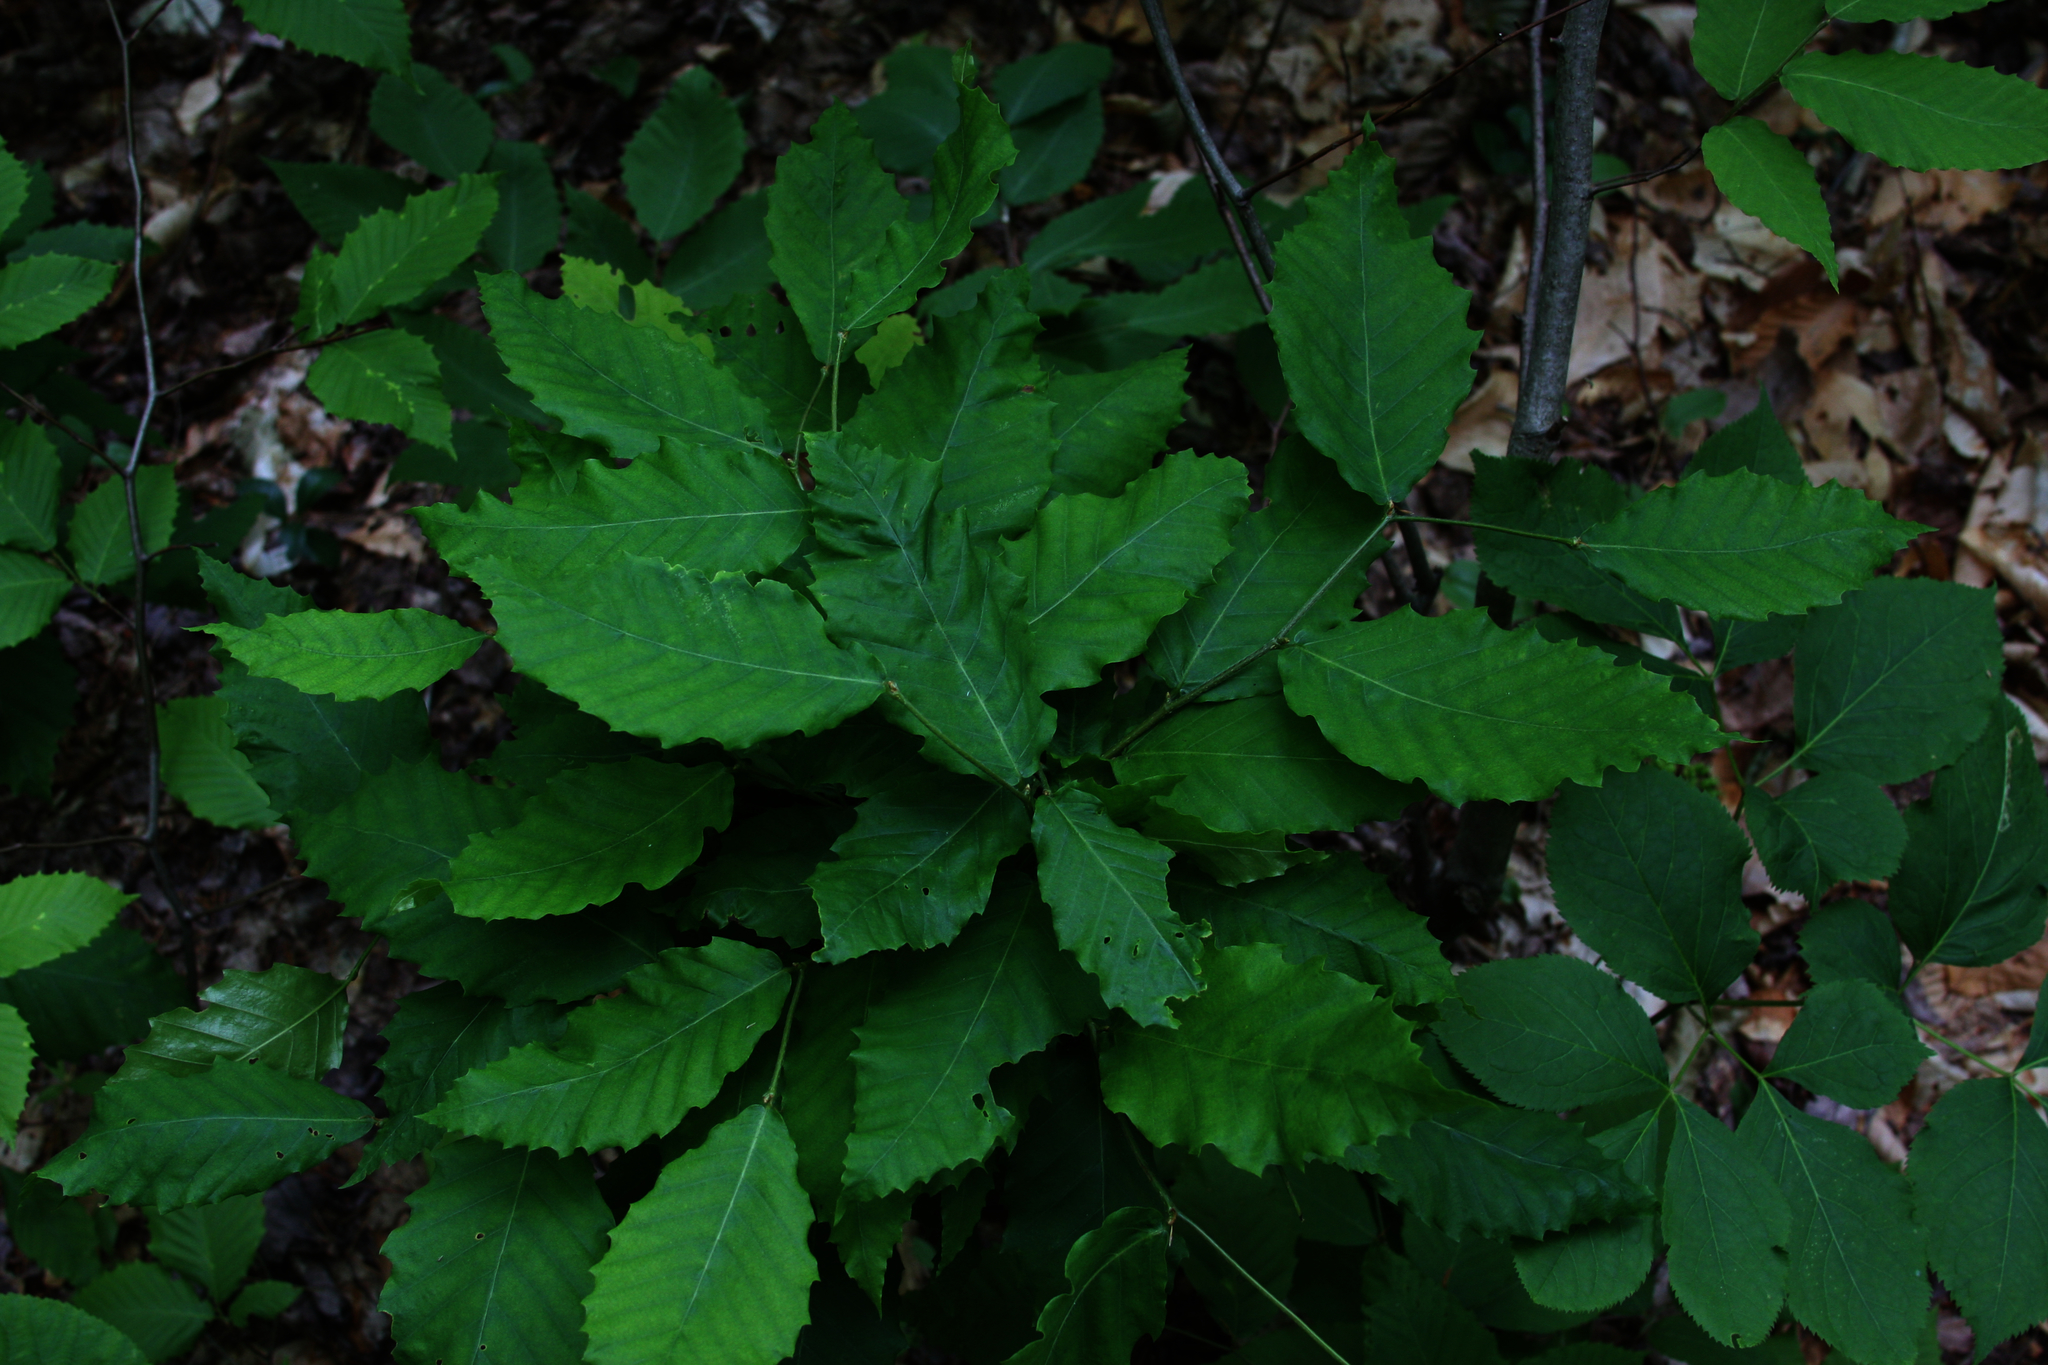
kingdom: Plantae
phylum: Tracheophyta
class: Magnoliopsida
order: Fagales
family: Fagaceae
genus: Fagus
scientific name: Fagus grandifolia
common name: American beech
